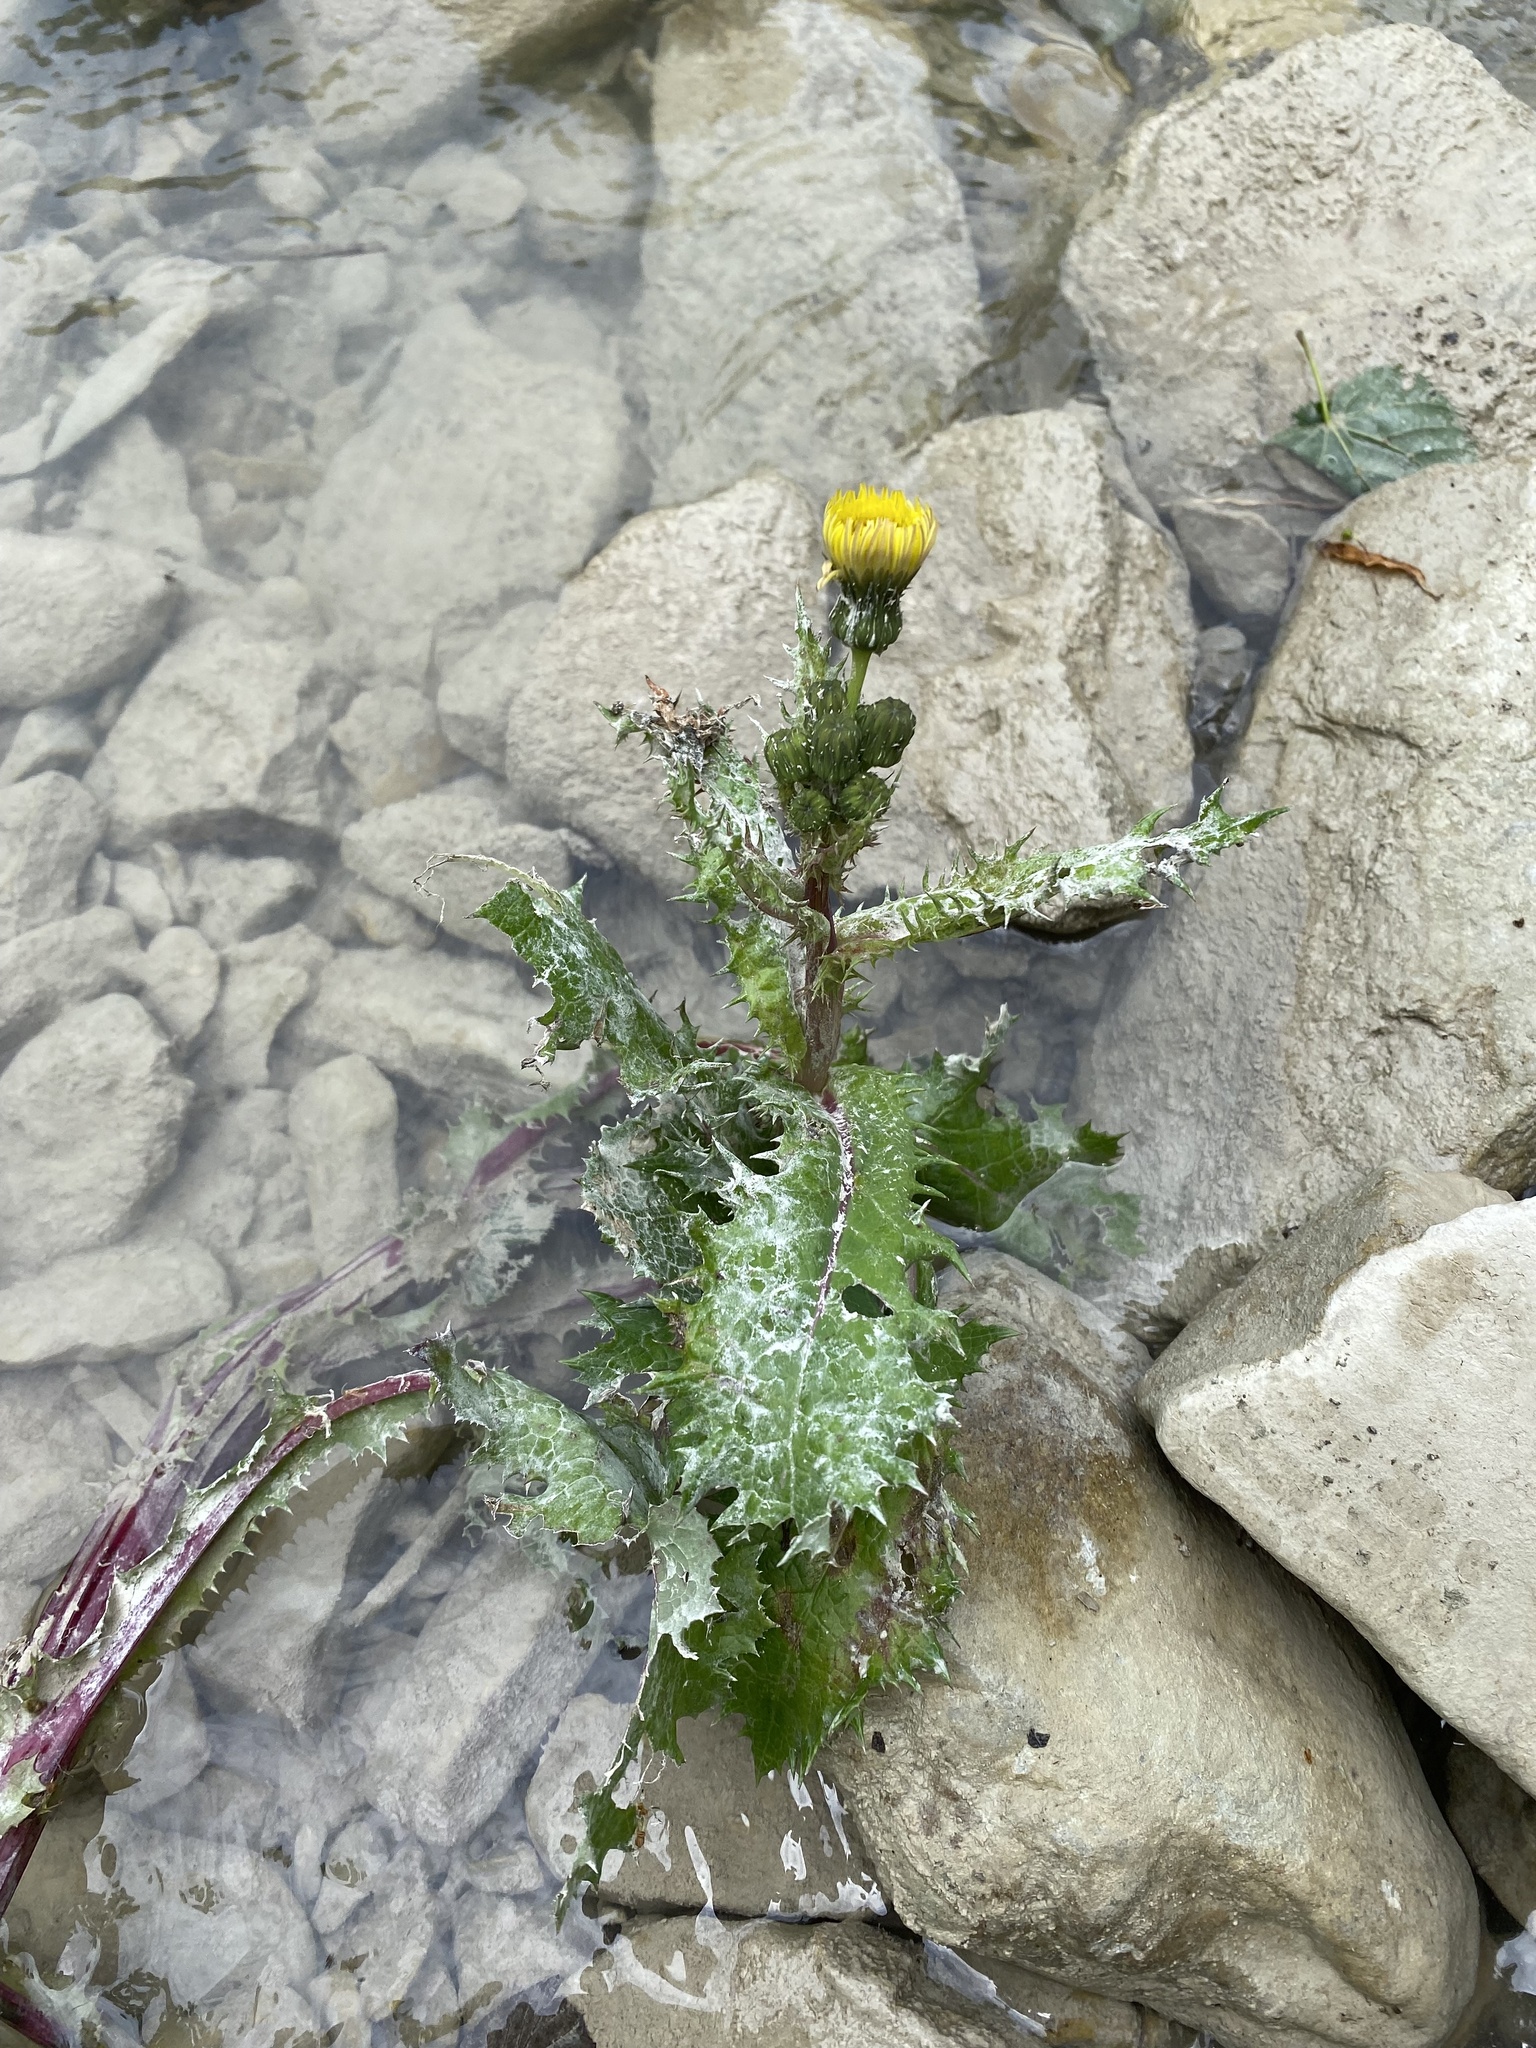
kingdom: Plantae
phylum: Tracheophyta
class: Magnoliopsida
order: Asterales
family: Asteraceae
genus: Sonchus
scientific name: Sonchus asper
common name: Prickly sow-thistle
